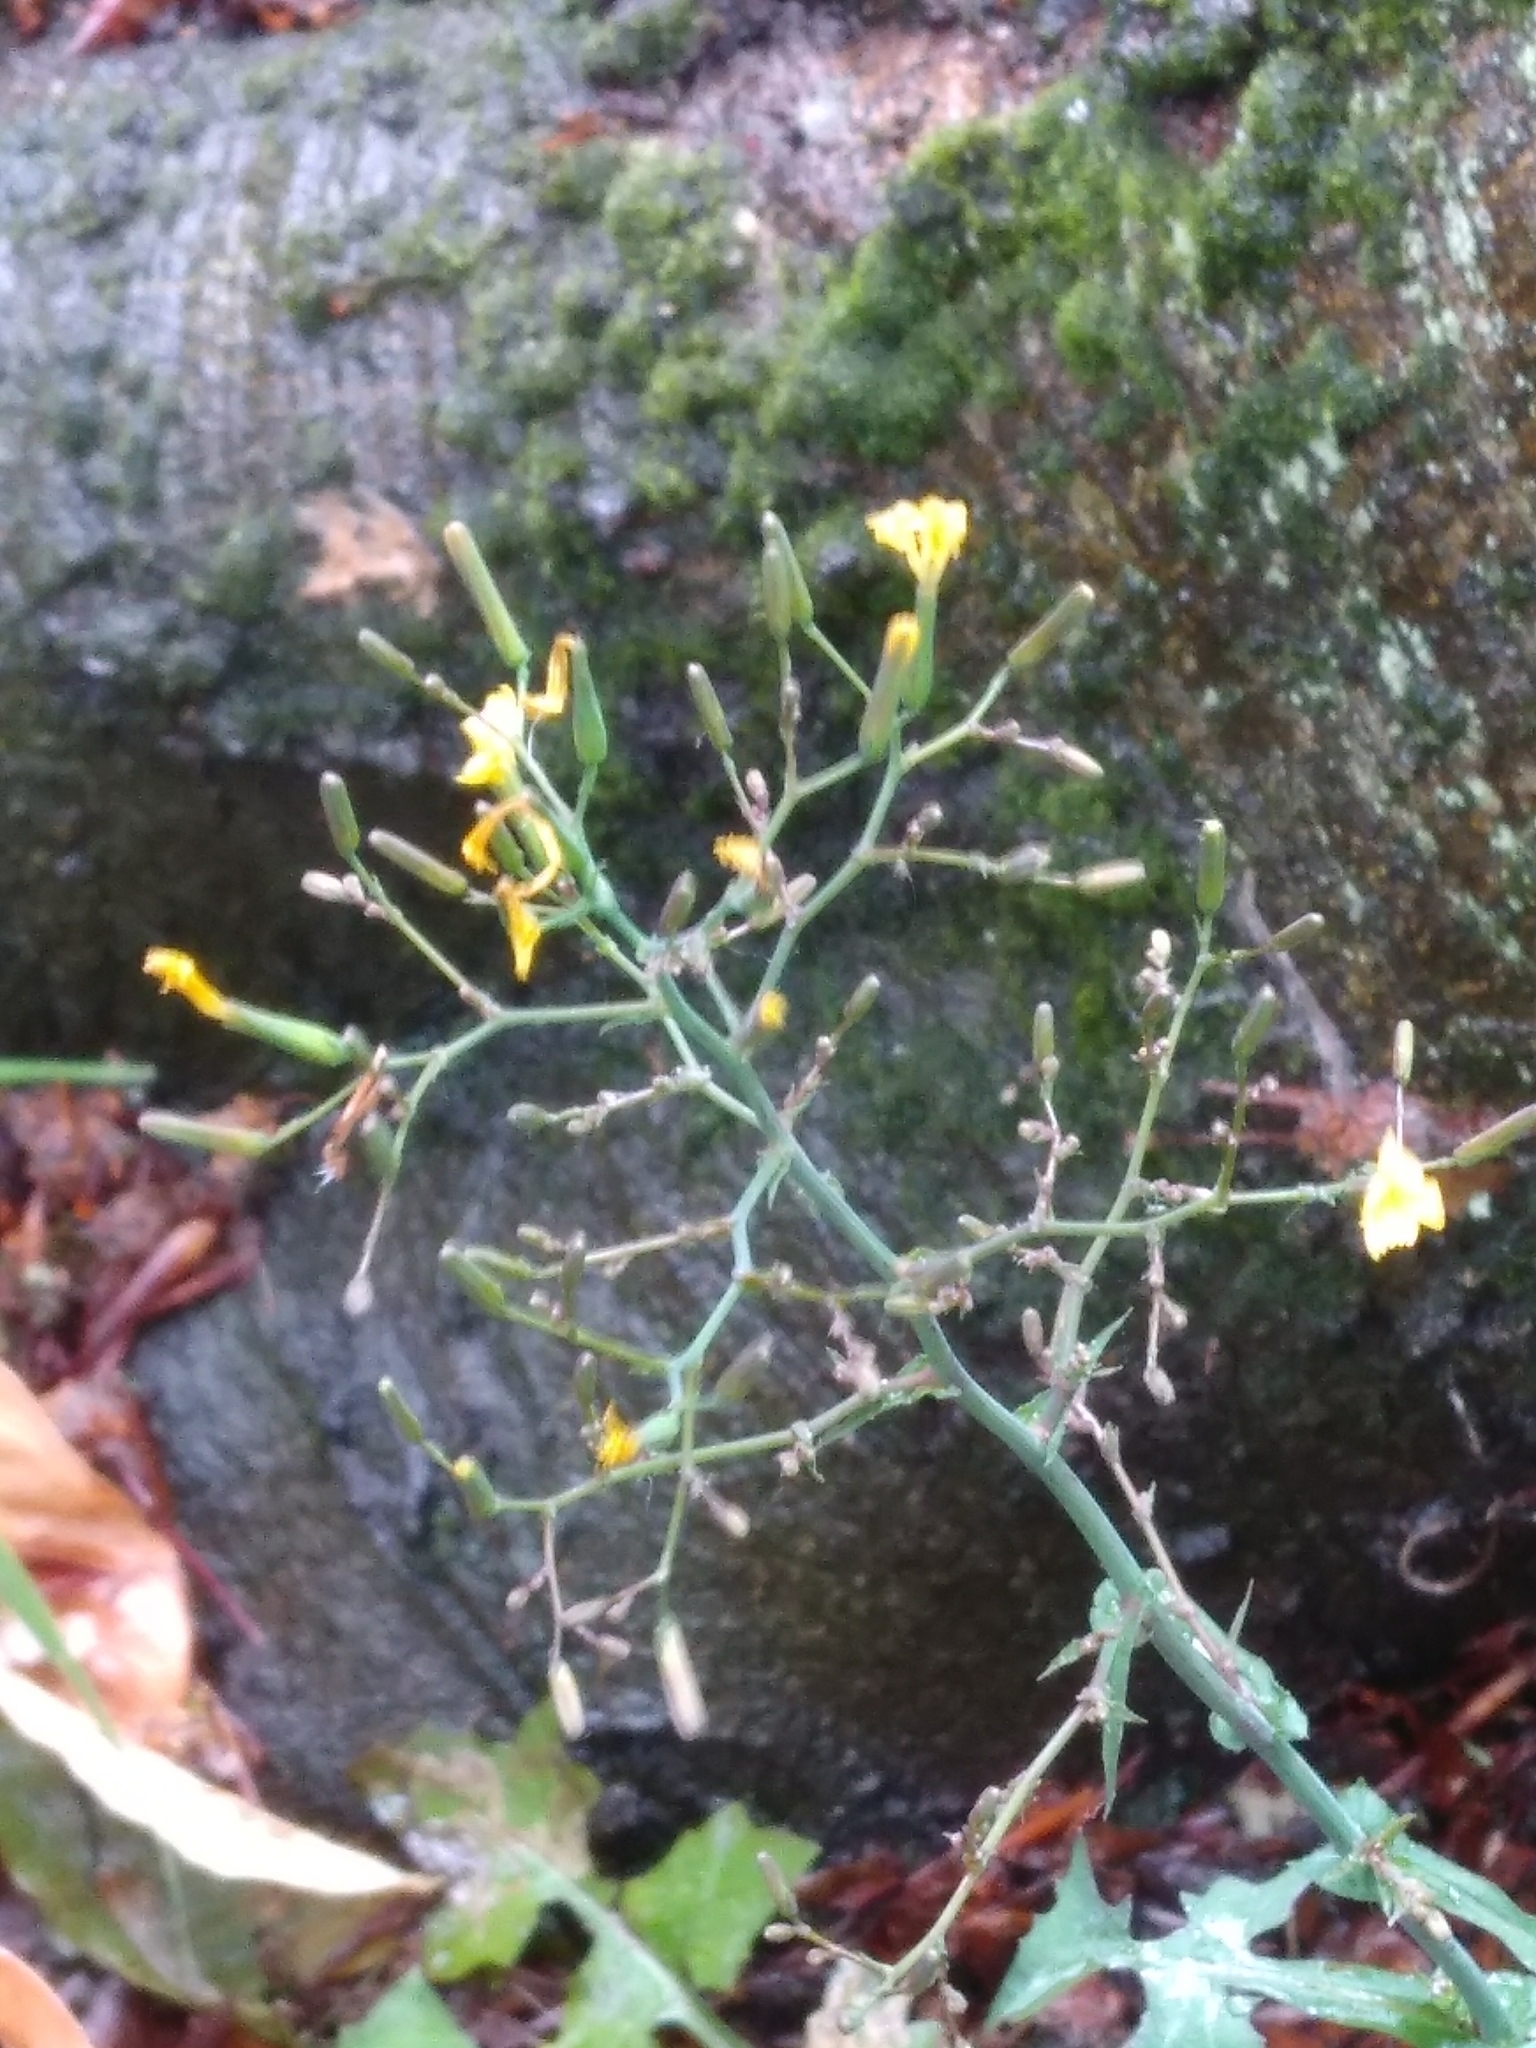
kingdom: Plantae
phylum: Tracheophyta
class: Magnoliopsida
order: Asterales
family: Asteraceae
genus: Mycelis
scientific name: Mycelis muralis
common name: Wall lettuce
